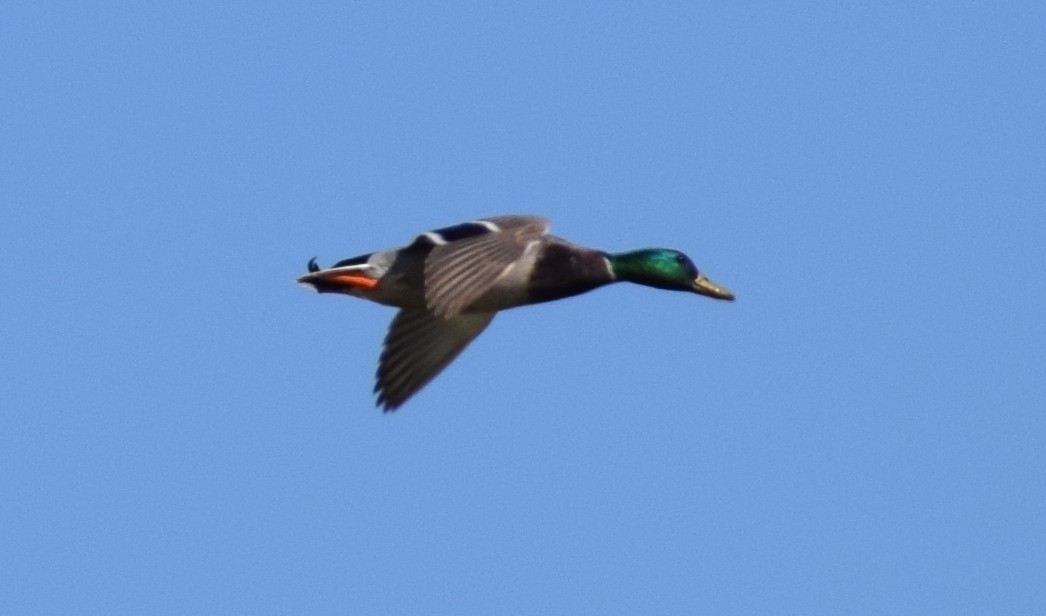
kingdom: Animalia
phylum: Chordata
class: Aves
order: Anseriformes
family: Anatidae
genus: Anas
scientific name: Anas platyrhynchos
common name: Mallard
